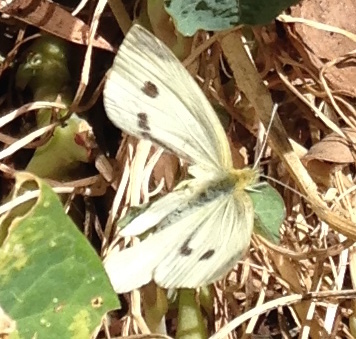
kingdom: Animalia
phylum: Arthropoda
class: Insecta
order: Lepidoptera
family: Pieridae
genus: Pieris
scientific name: Pieris rapae
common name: Small white
